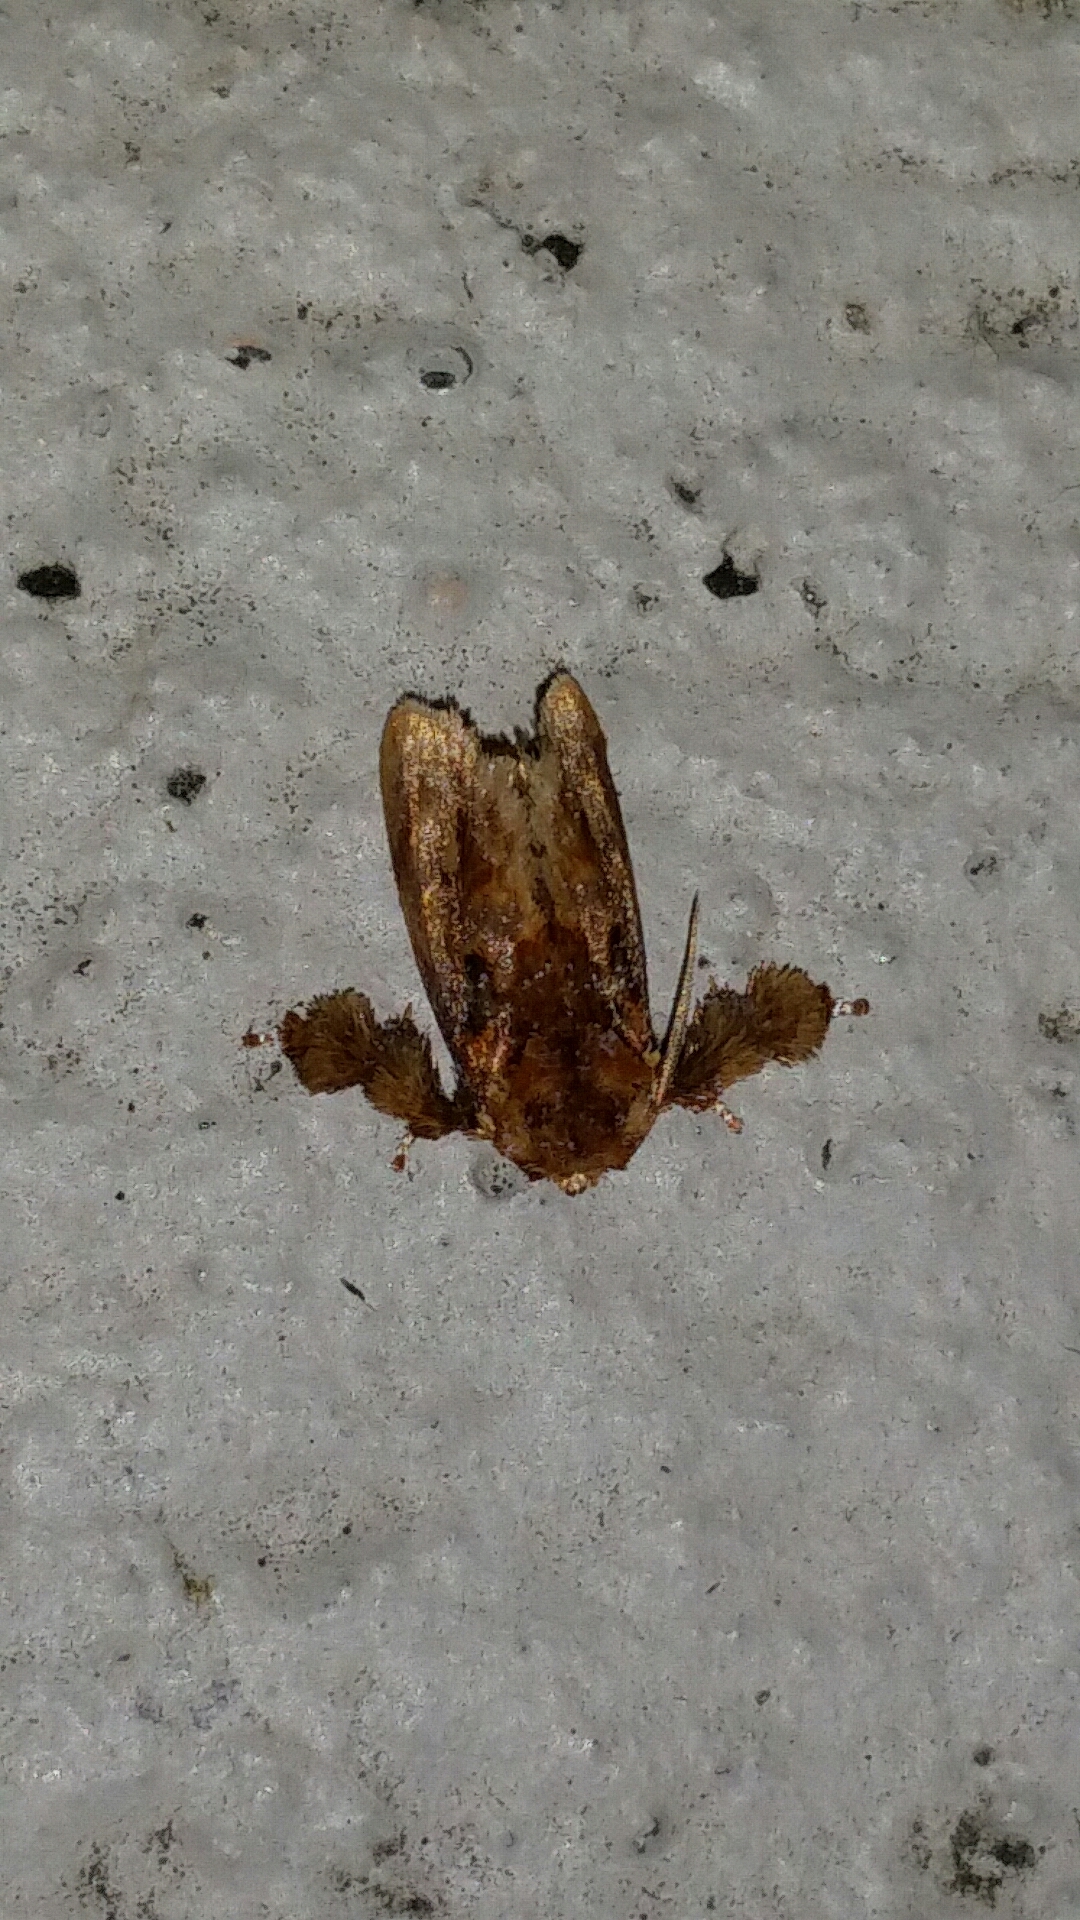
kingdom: Animalia
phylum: Arthropoda
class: Insecta
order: Lepidoptera
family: Limacodidae
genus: Isochaetes
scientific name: Isochaetes beutenmuelleri
